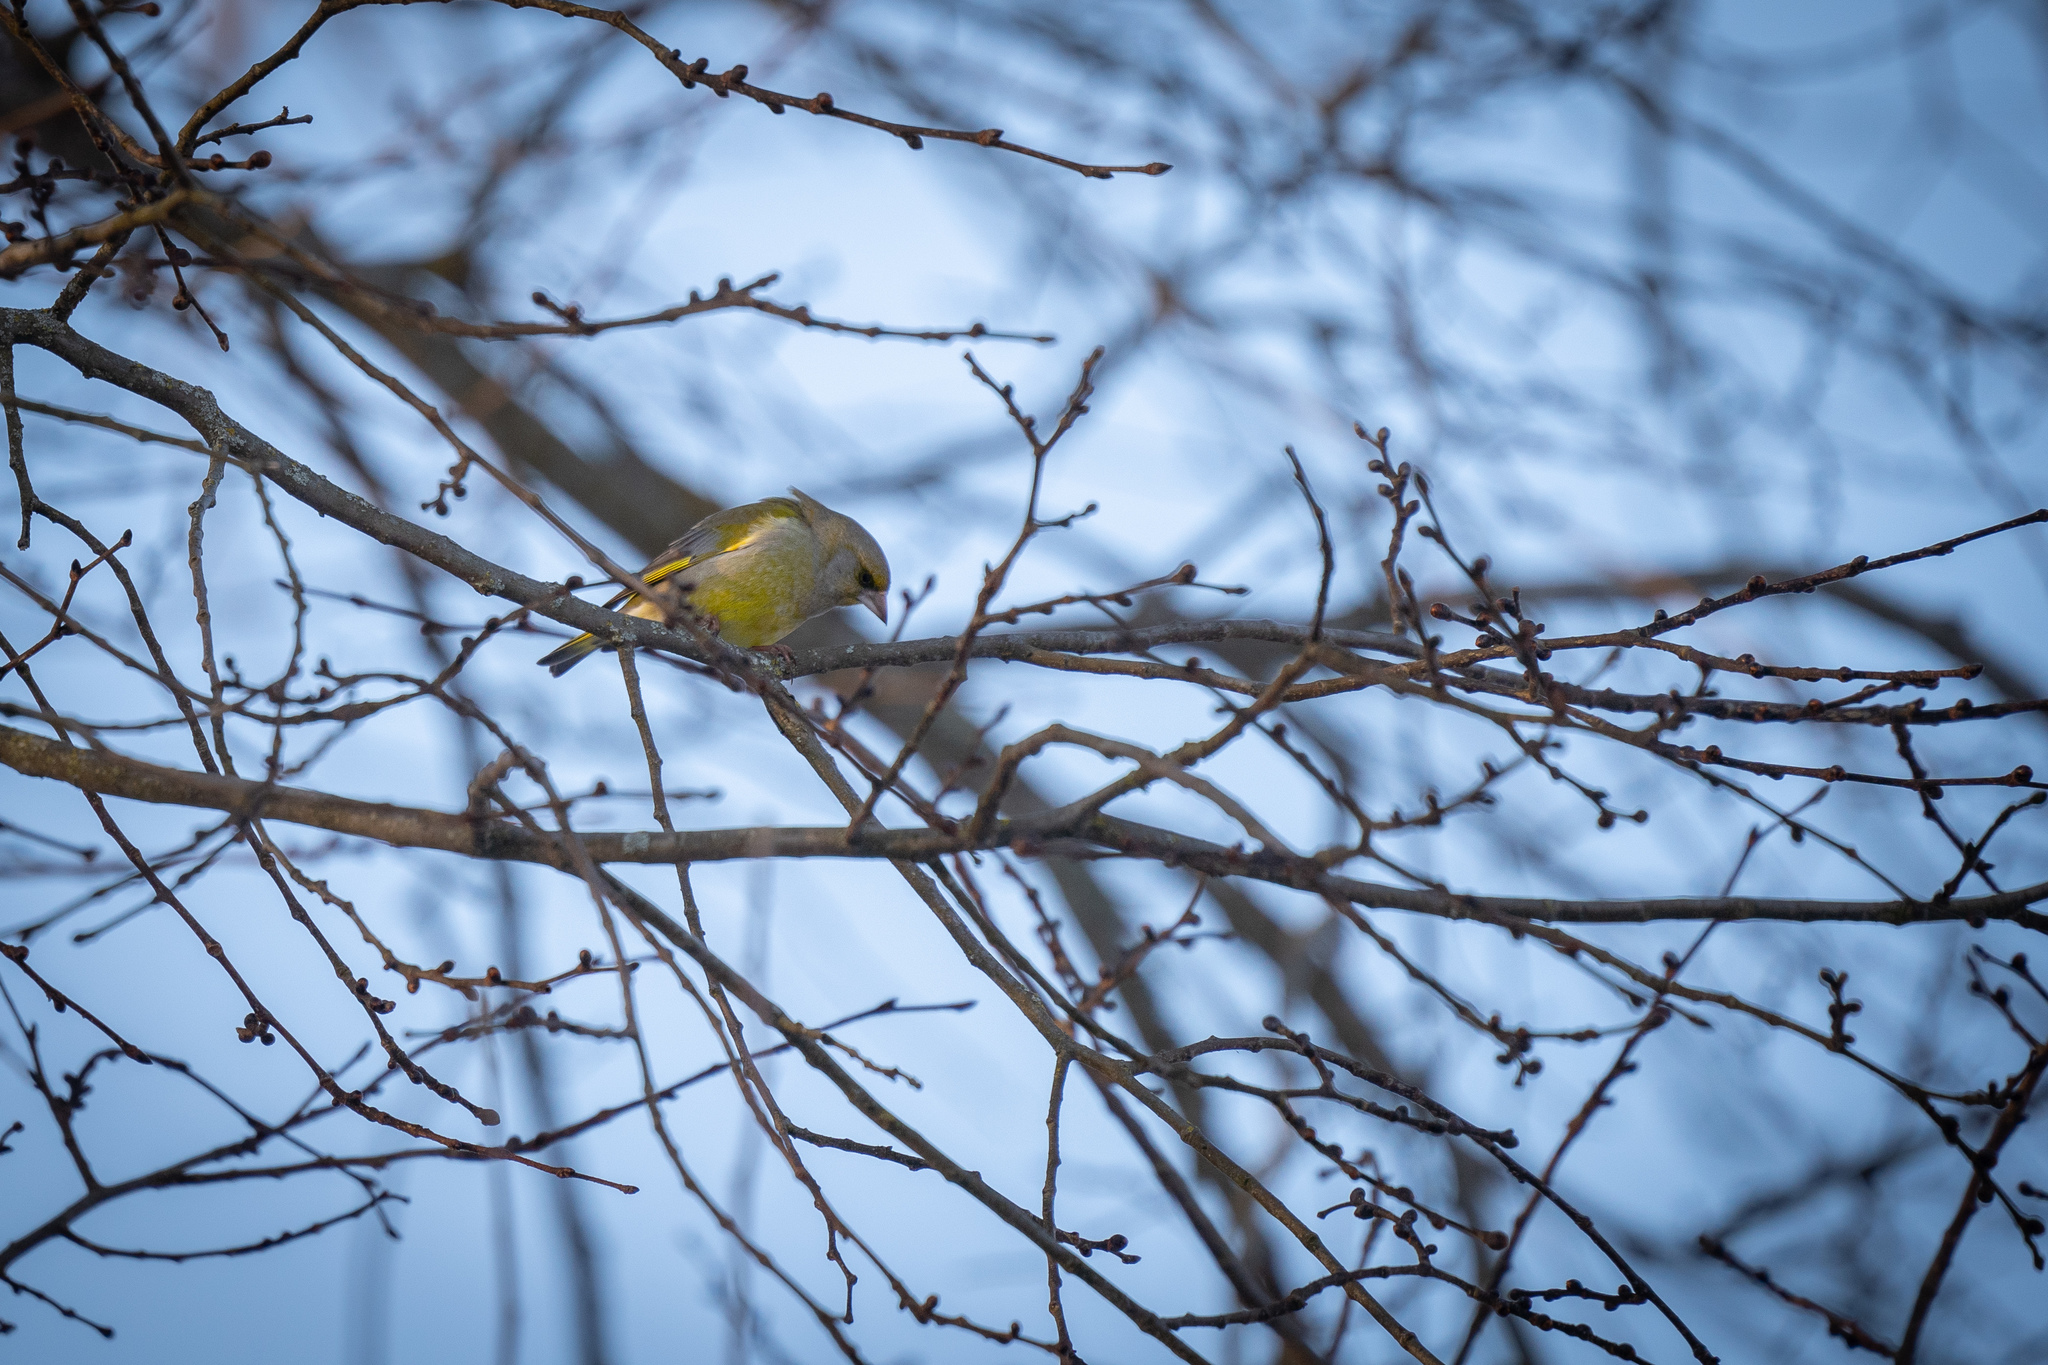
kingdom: Plantae
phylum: Tracheophyta
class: Liliopsida
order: Poales
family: Poaceae
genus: Chloris
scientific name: Chloris chloris
